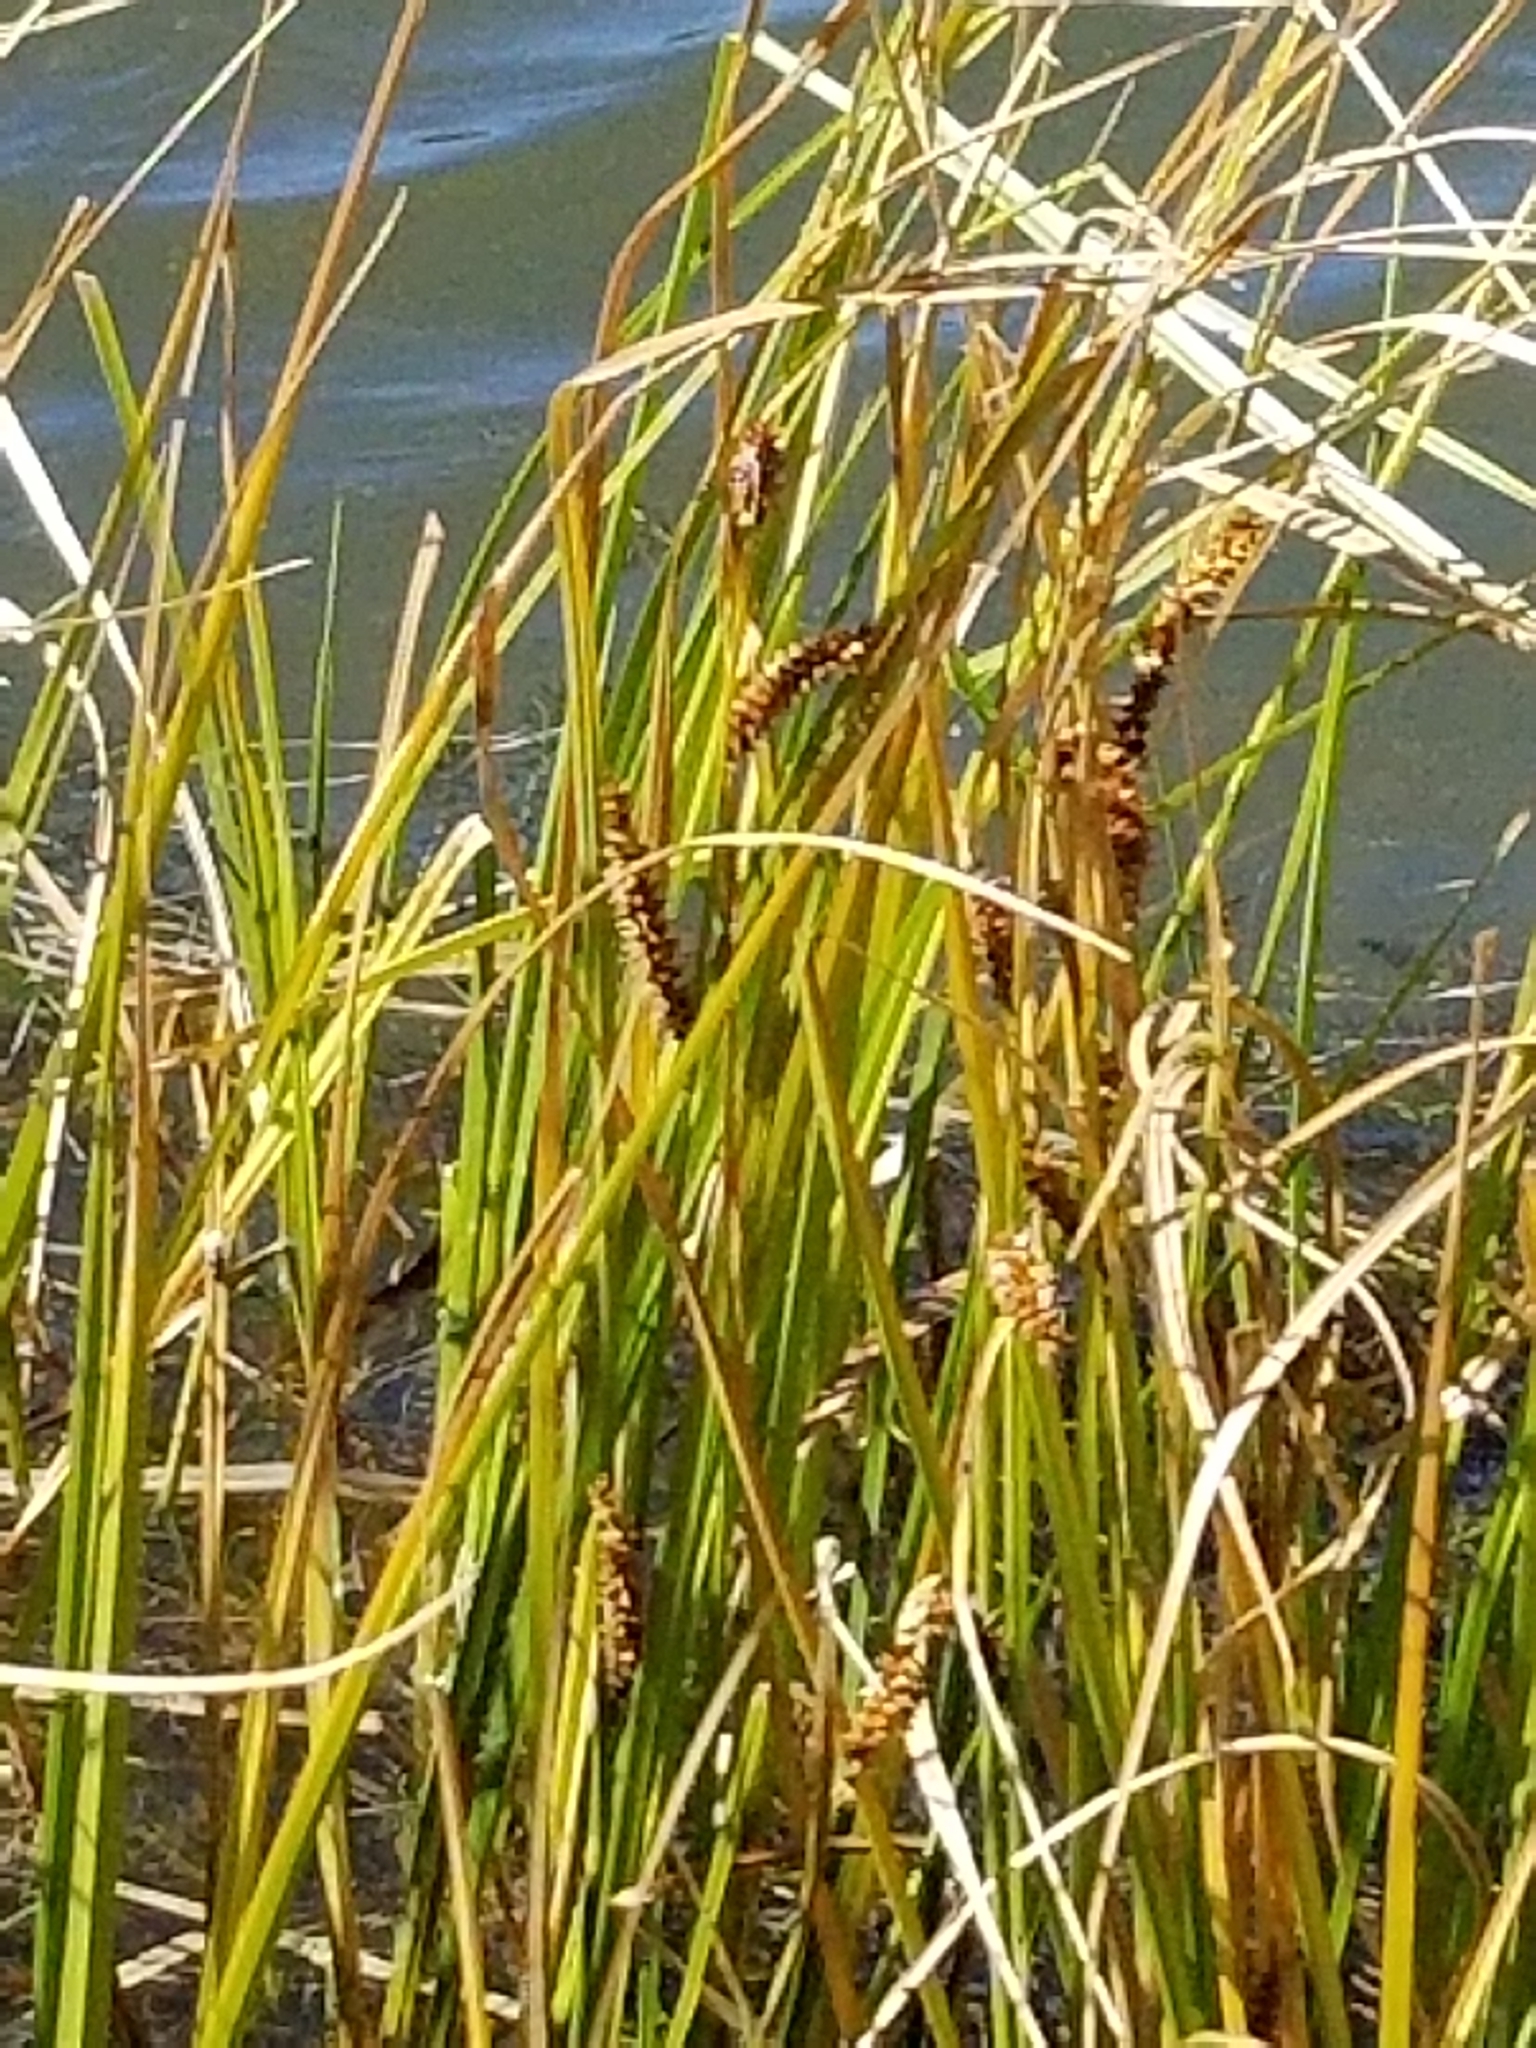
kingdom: Plantae
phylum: Tracheophyta
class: Liliopsida
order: Poales
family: Cyperaceae
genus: Carex
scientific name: Carex aquatilis
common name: Water sedge
